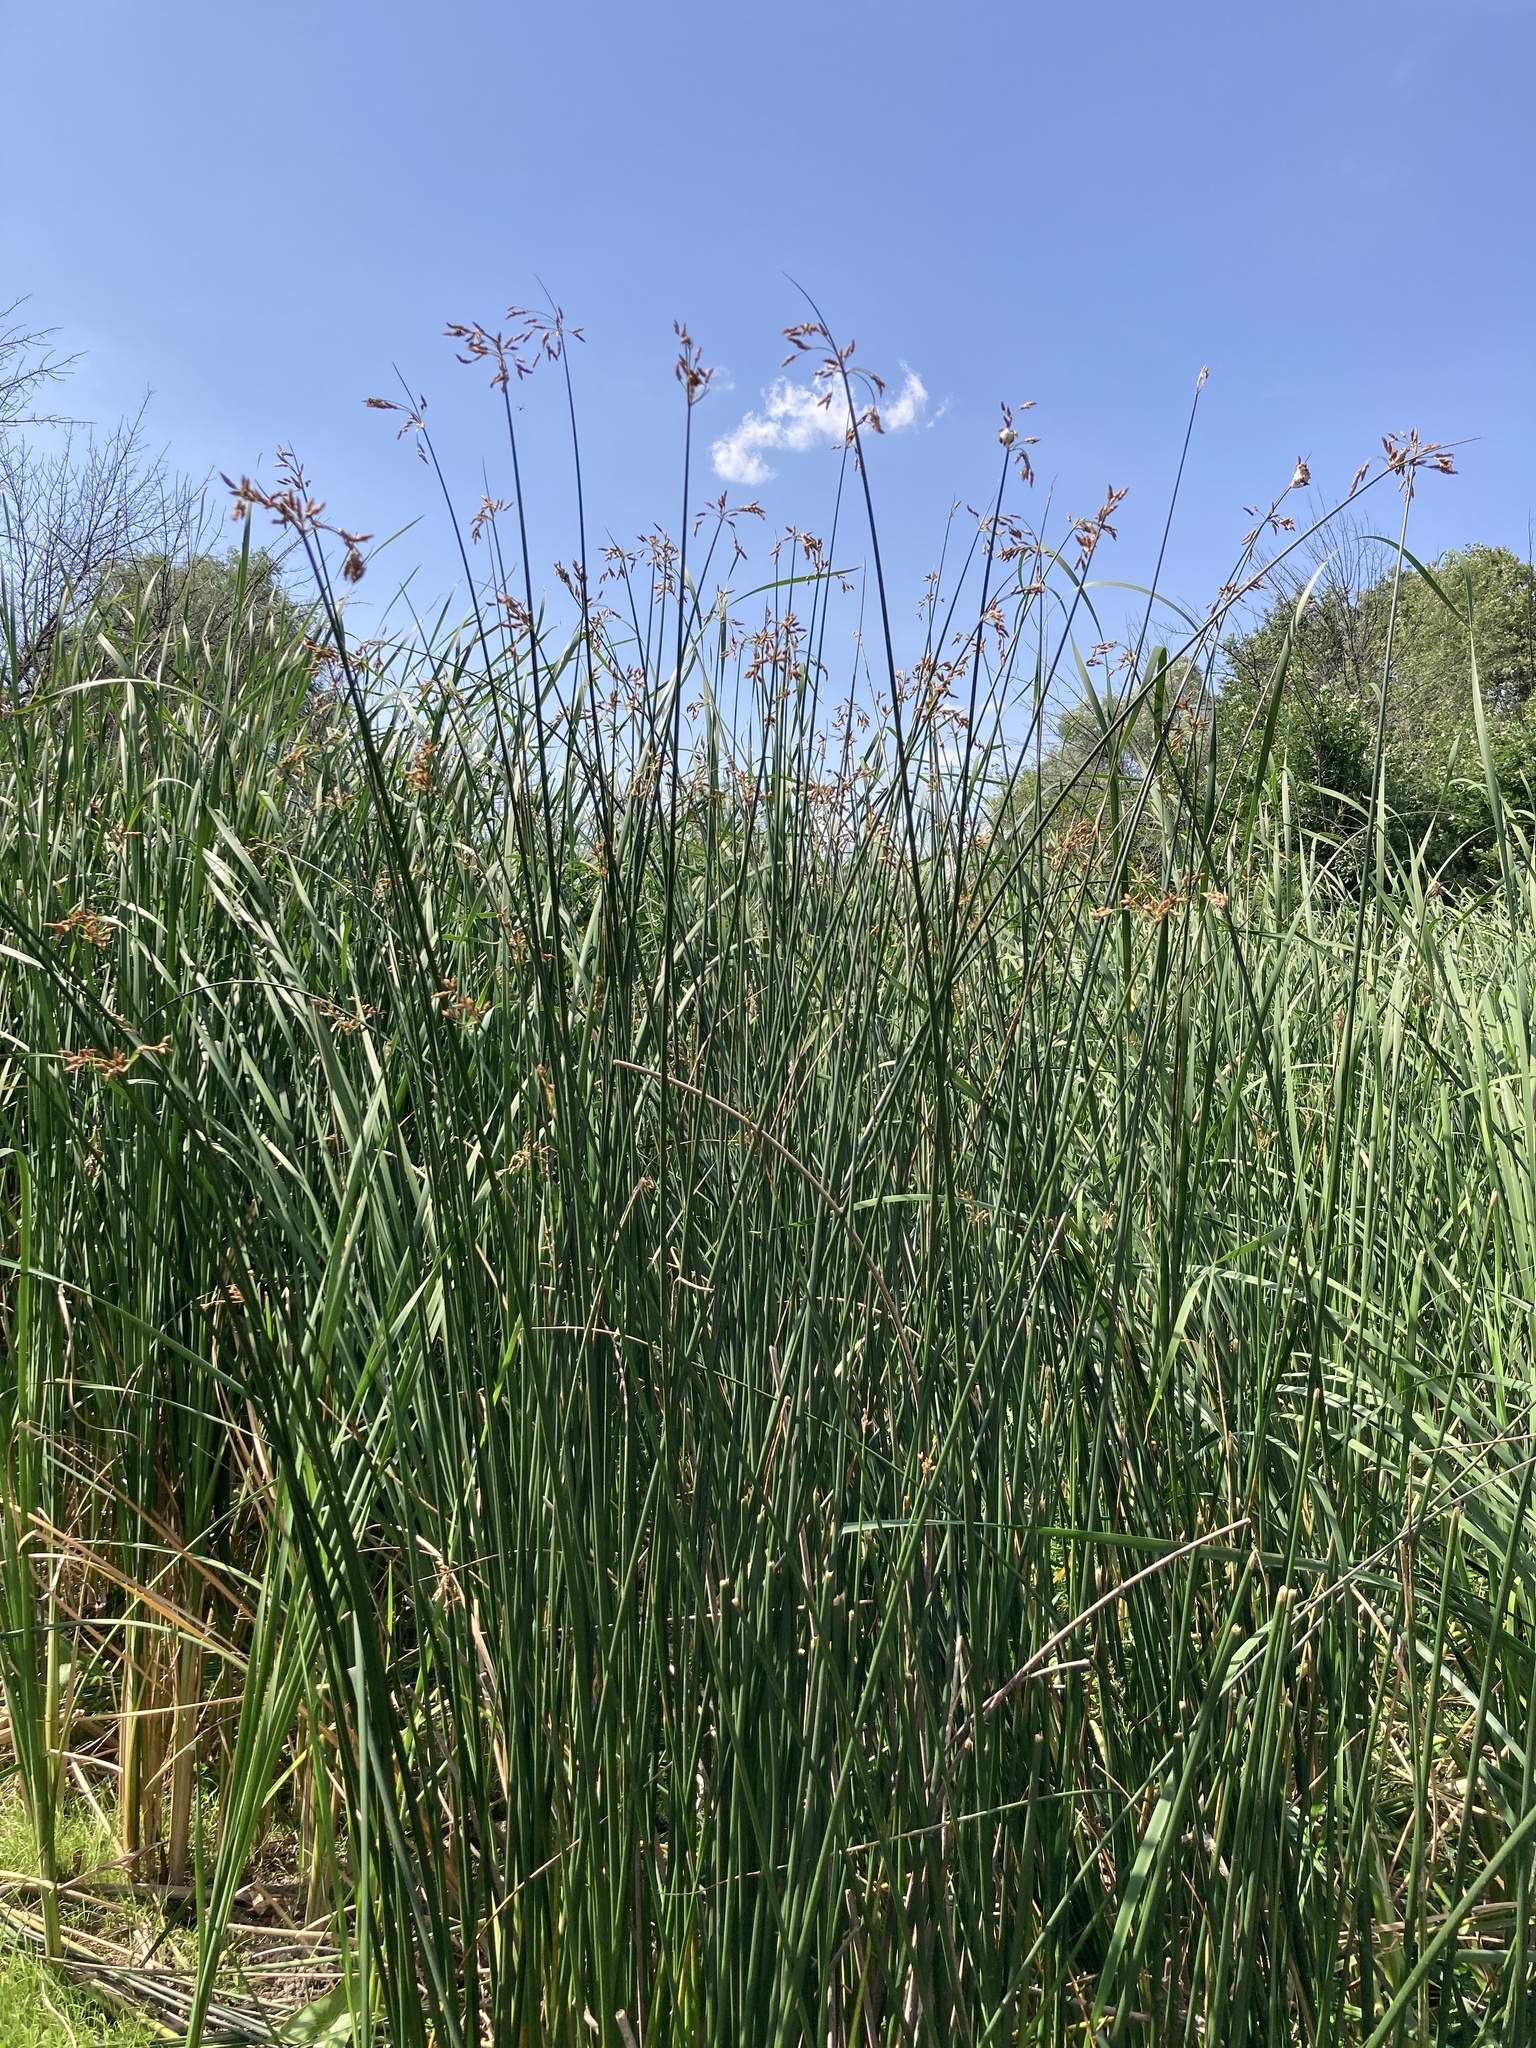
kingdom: Plantae
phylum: Tracheophyta
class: Liliopsida
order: Poales
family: Cyperaceae
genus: Schoenoplectus
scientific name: Schoenoplectus lacustris
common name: Common club-rush
